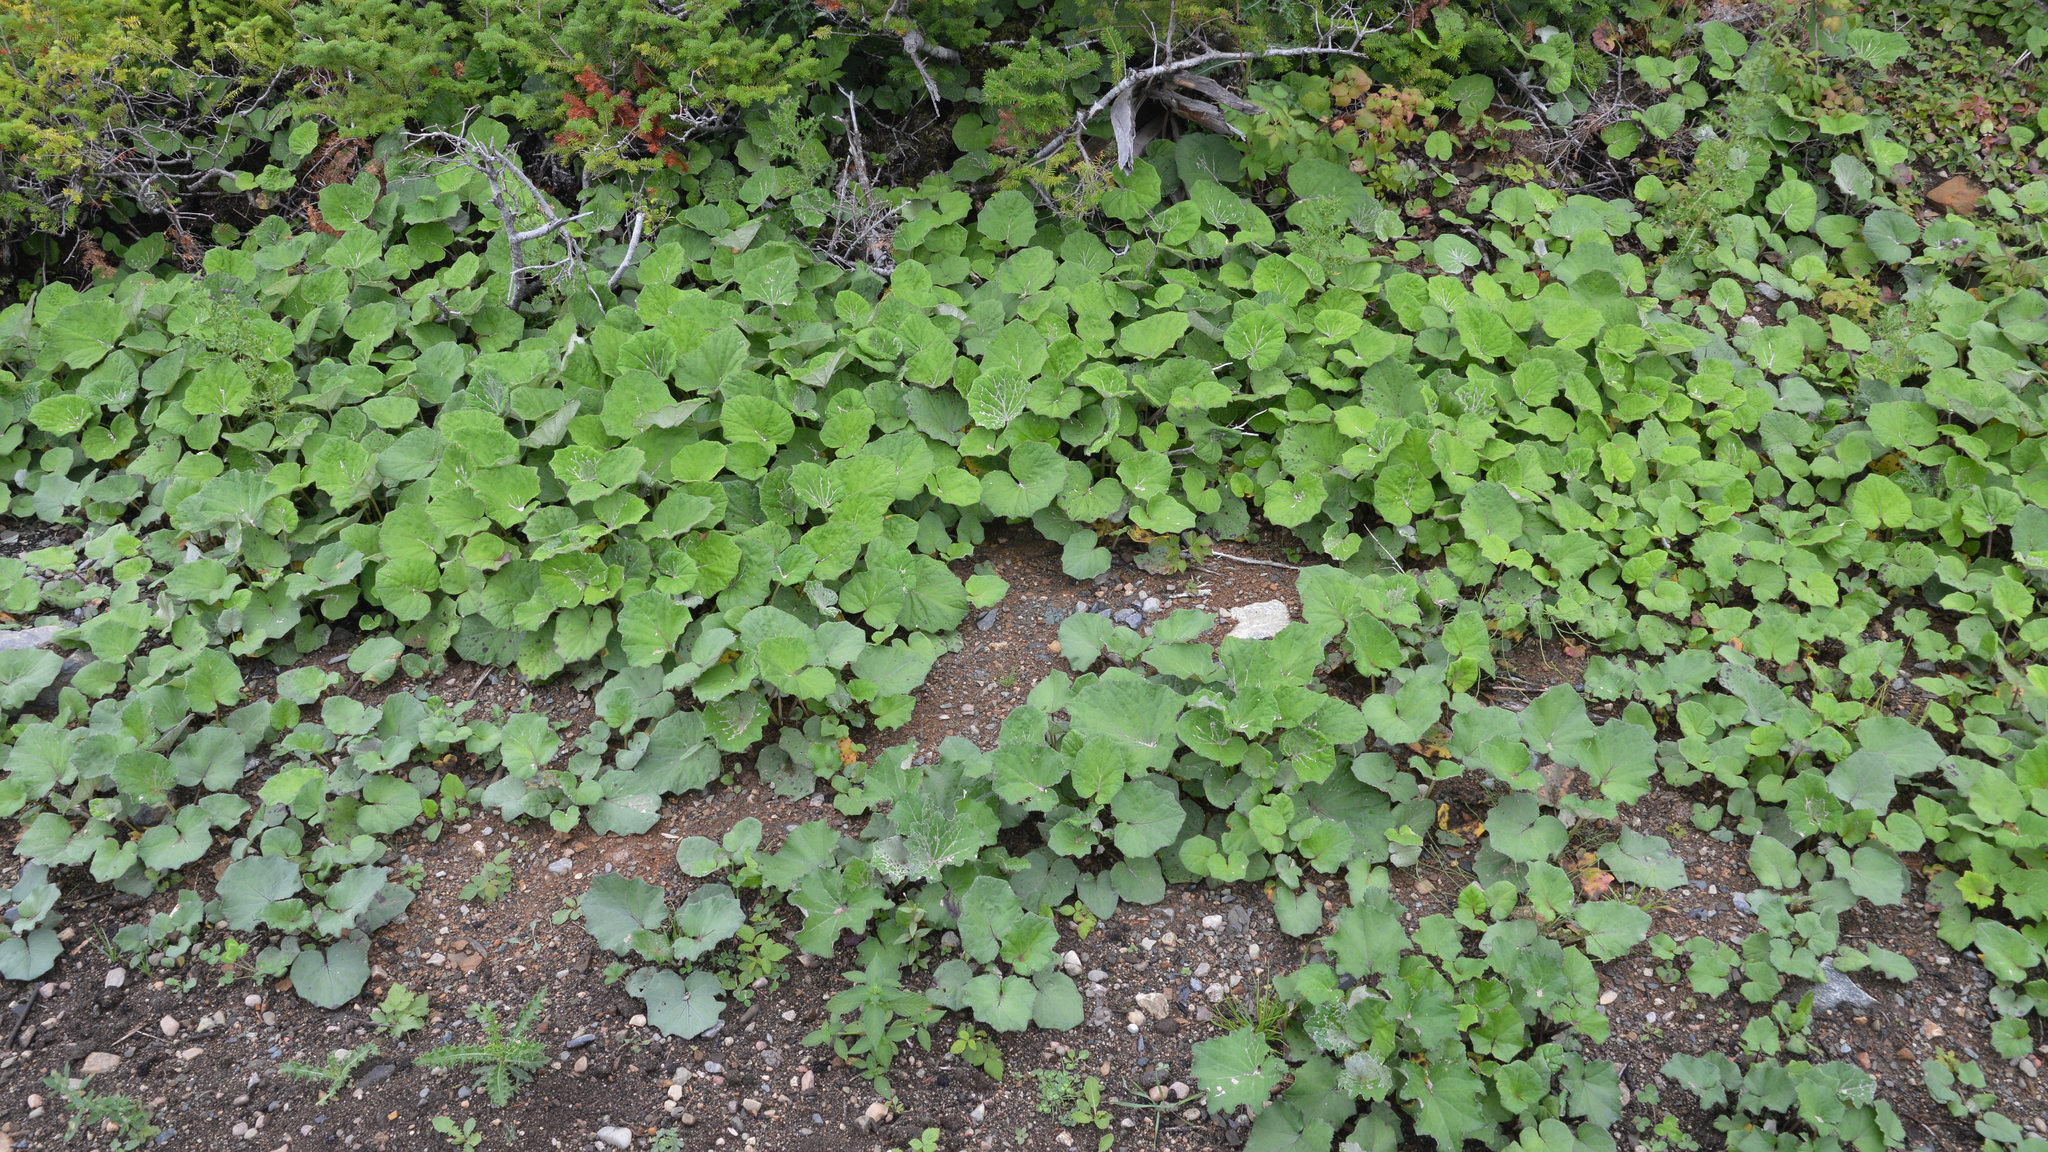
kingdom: Plantae
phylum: Tracheophyta
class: Magnoliopsida
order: Asterales
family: Asteraceae
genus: Tussilago
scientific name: Tussilago farfara
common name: Coltsfoot
